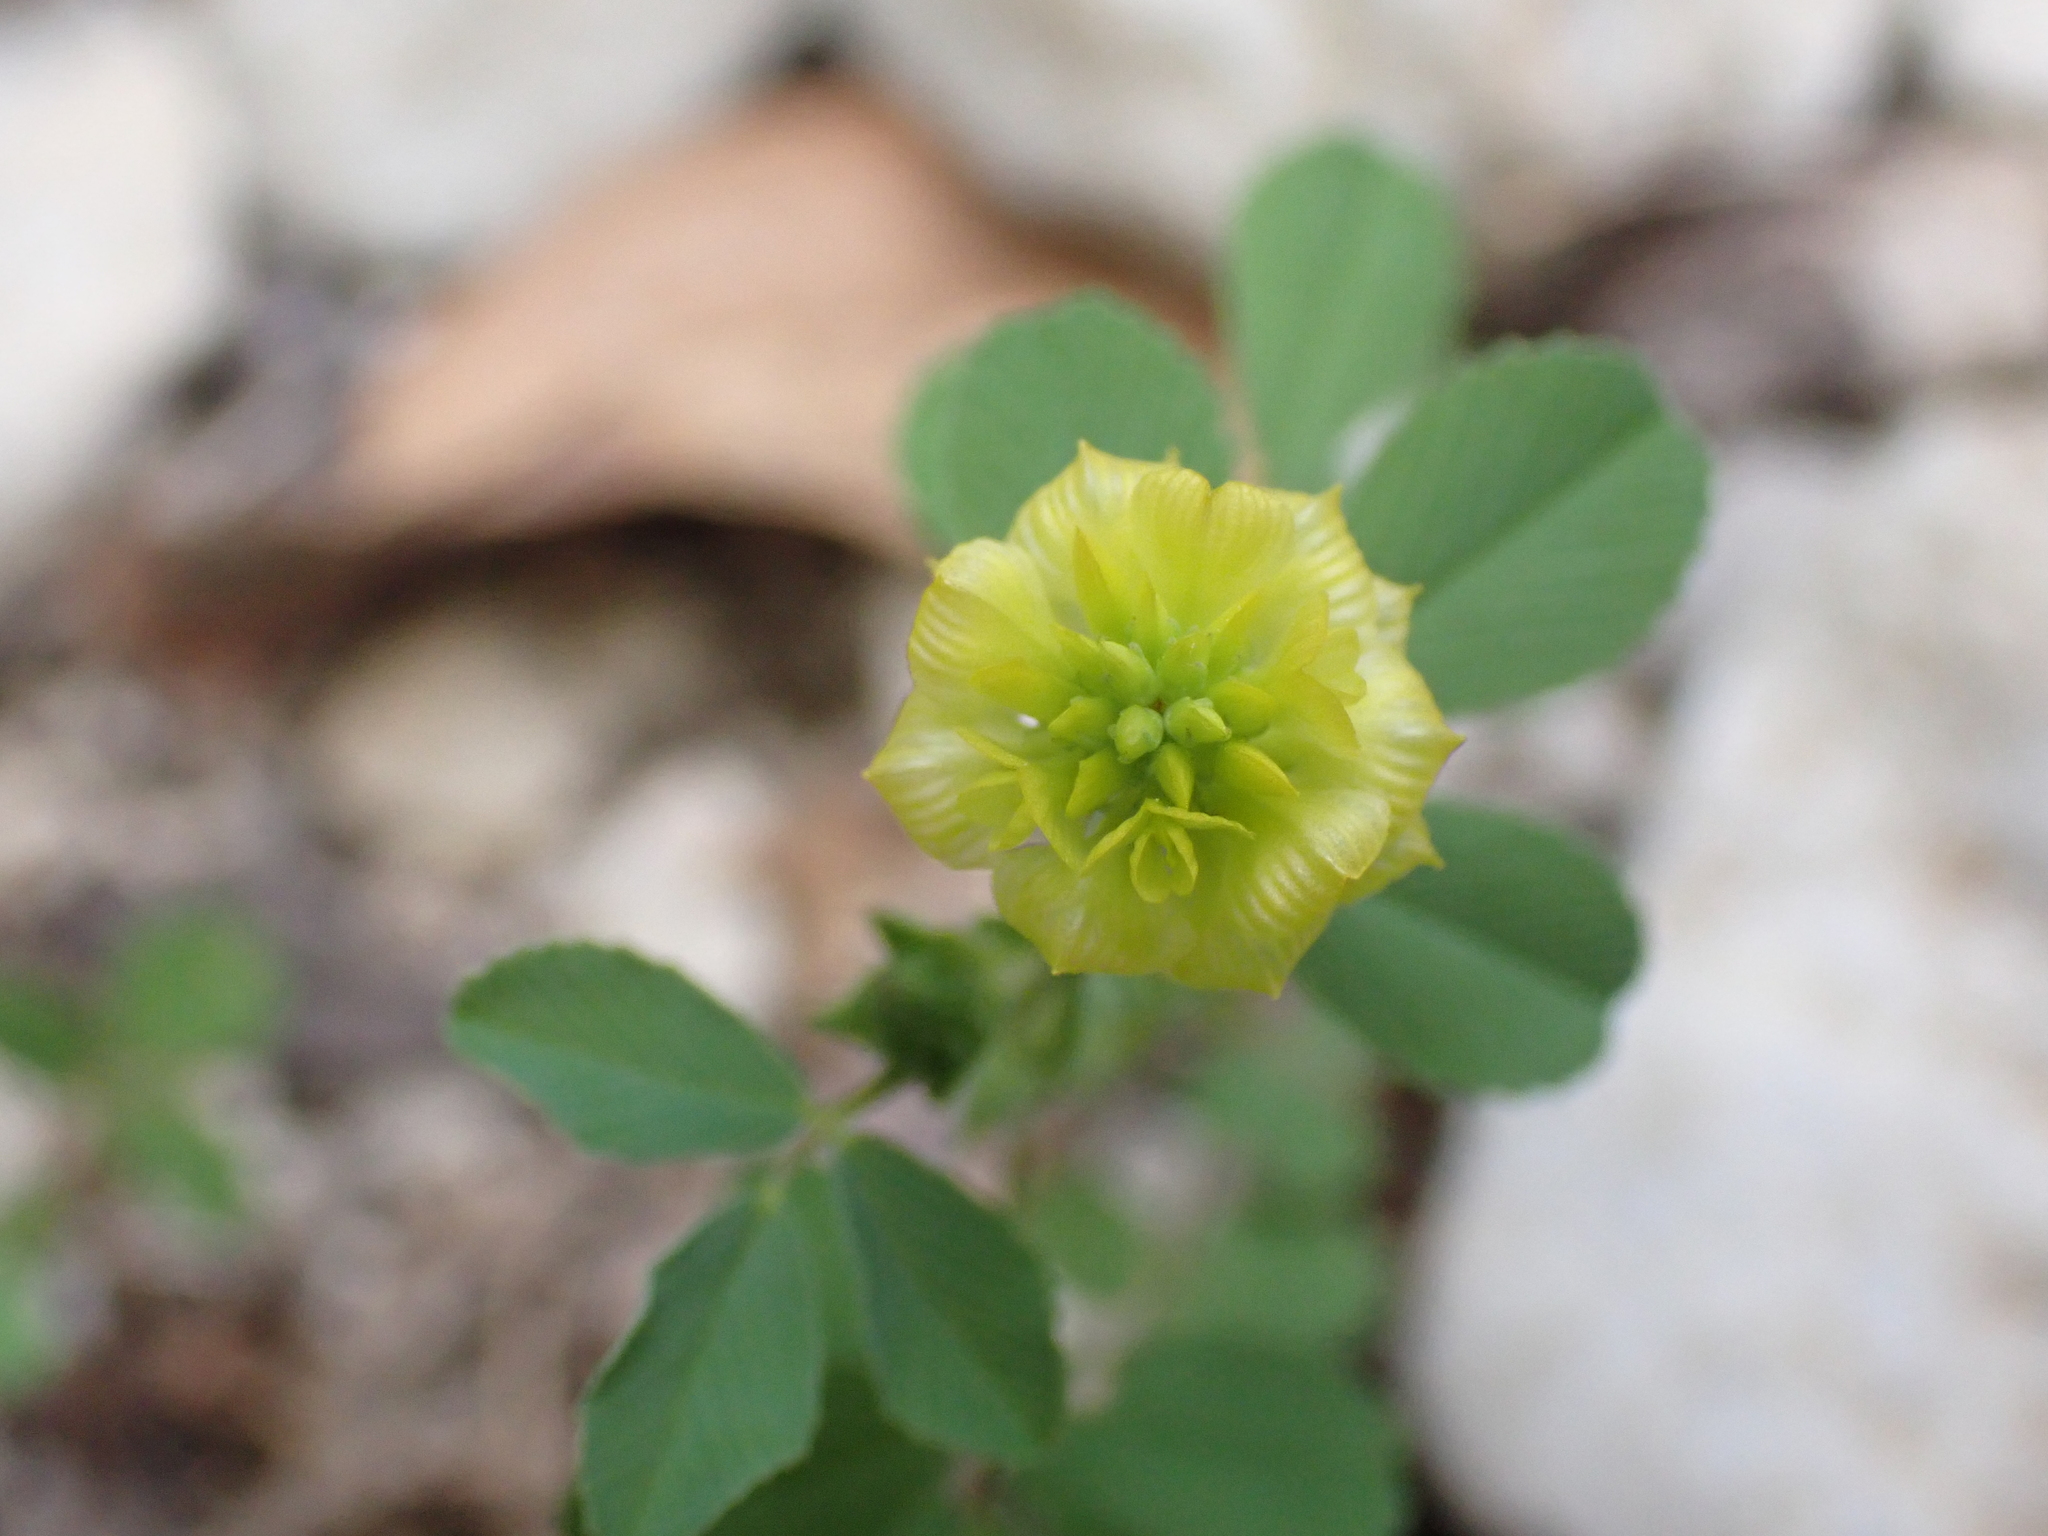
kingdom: Plantae
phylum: Tracheophyta
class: Magnoliopsida
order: Fabales
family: Fabaceae
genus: Trifolium
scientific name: Trifolium campestre
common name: Field clover
